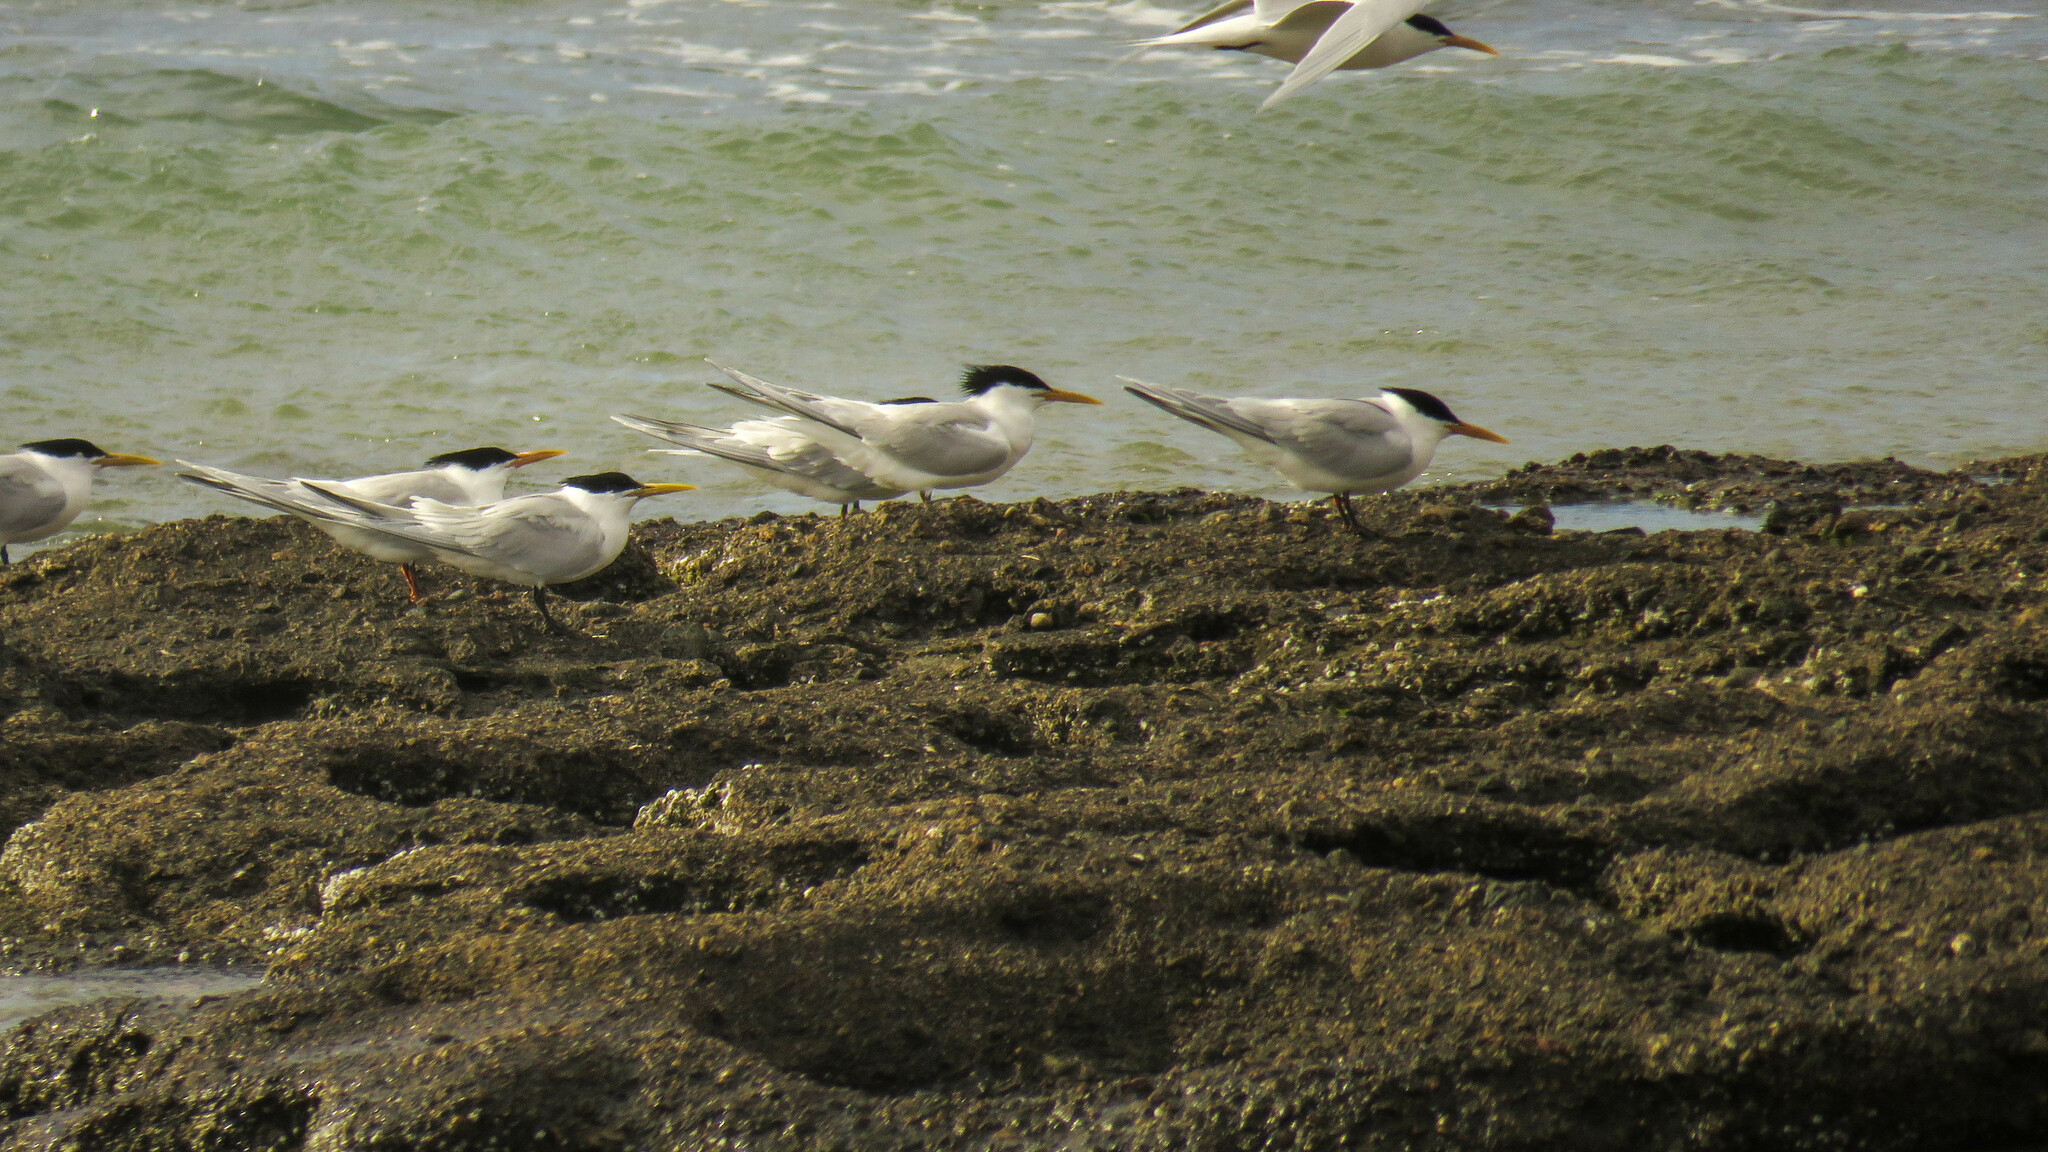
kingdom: Animalia
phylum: Chordata
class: Aves
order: Charadriiformes
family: Laridae
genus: Thalasseus
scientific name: Thalasseus sandvicensis
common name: Sandwich tern
